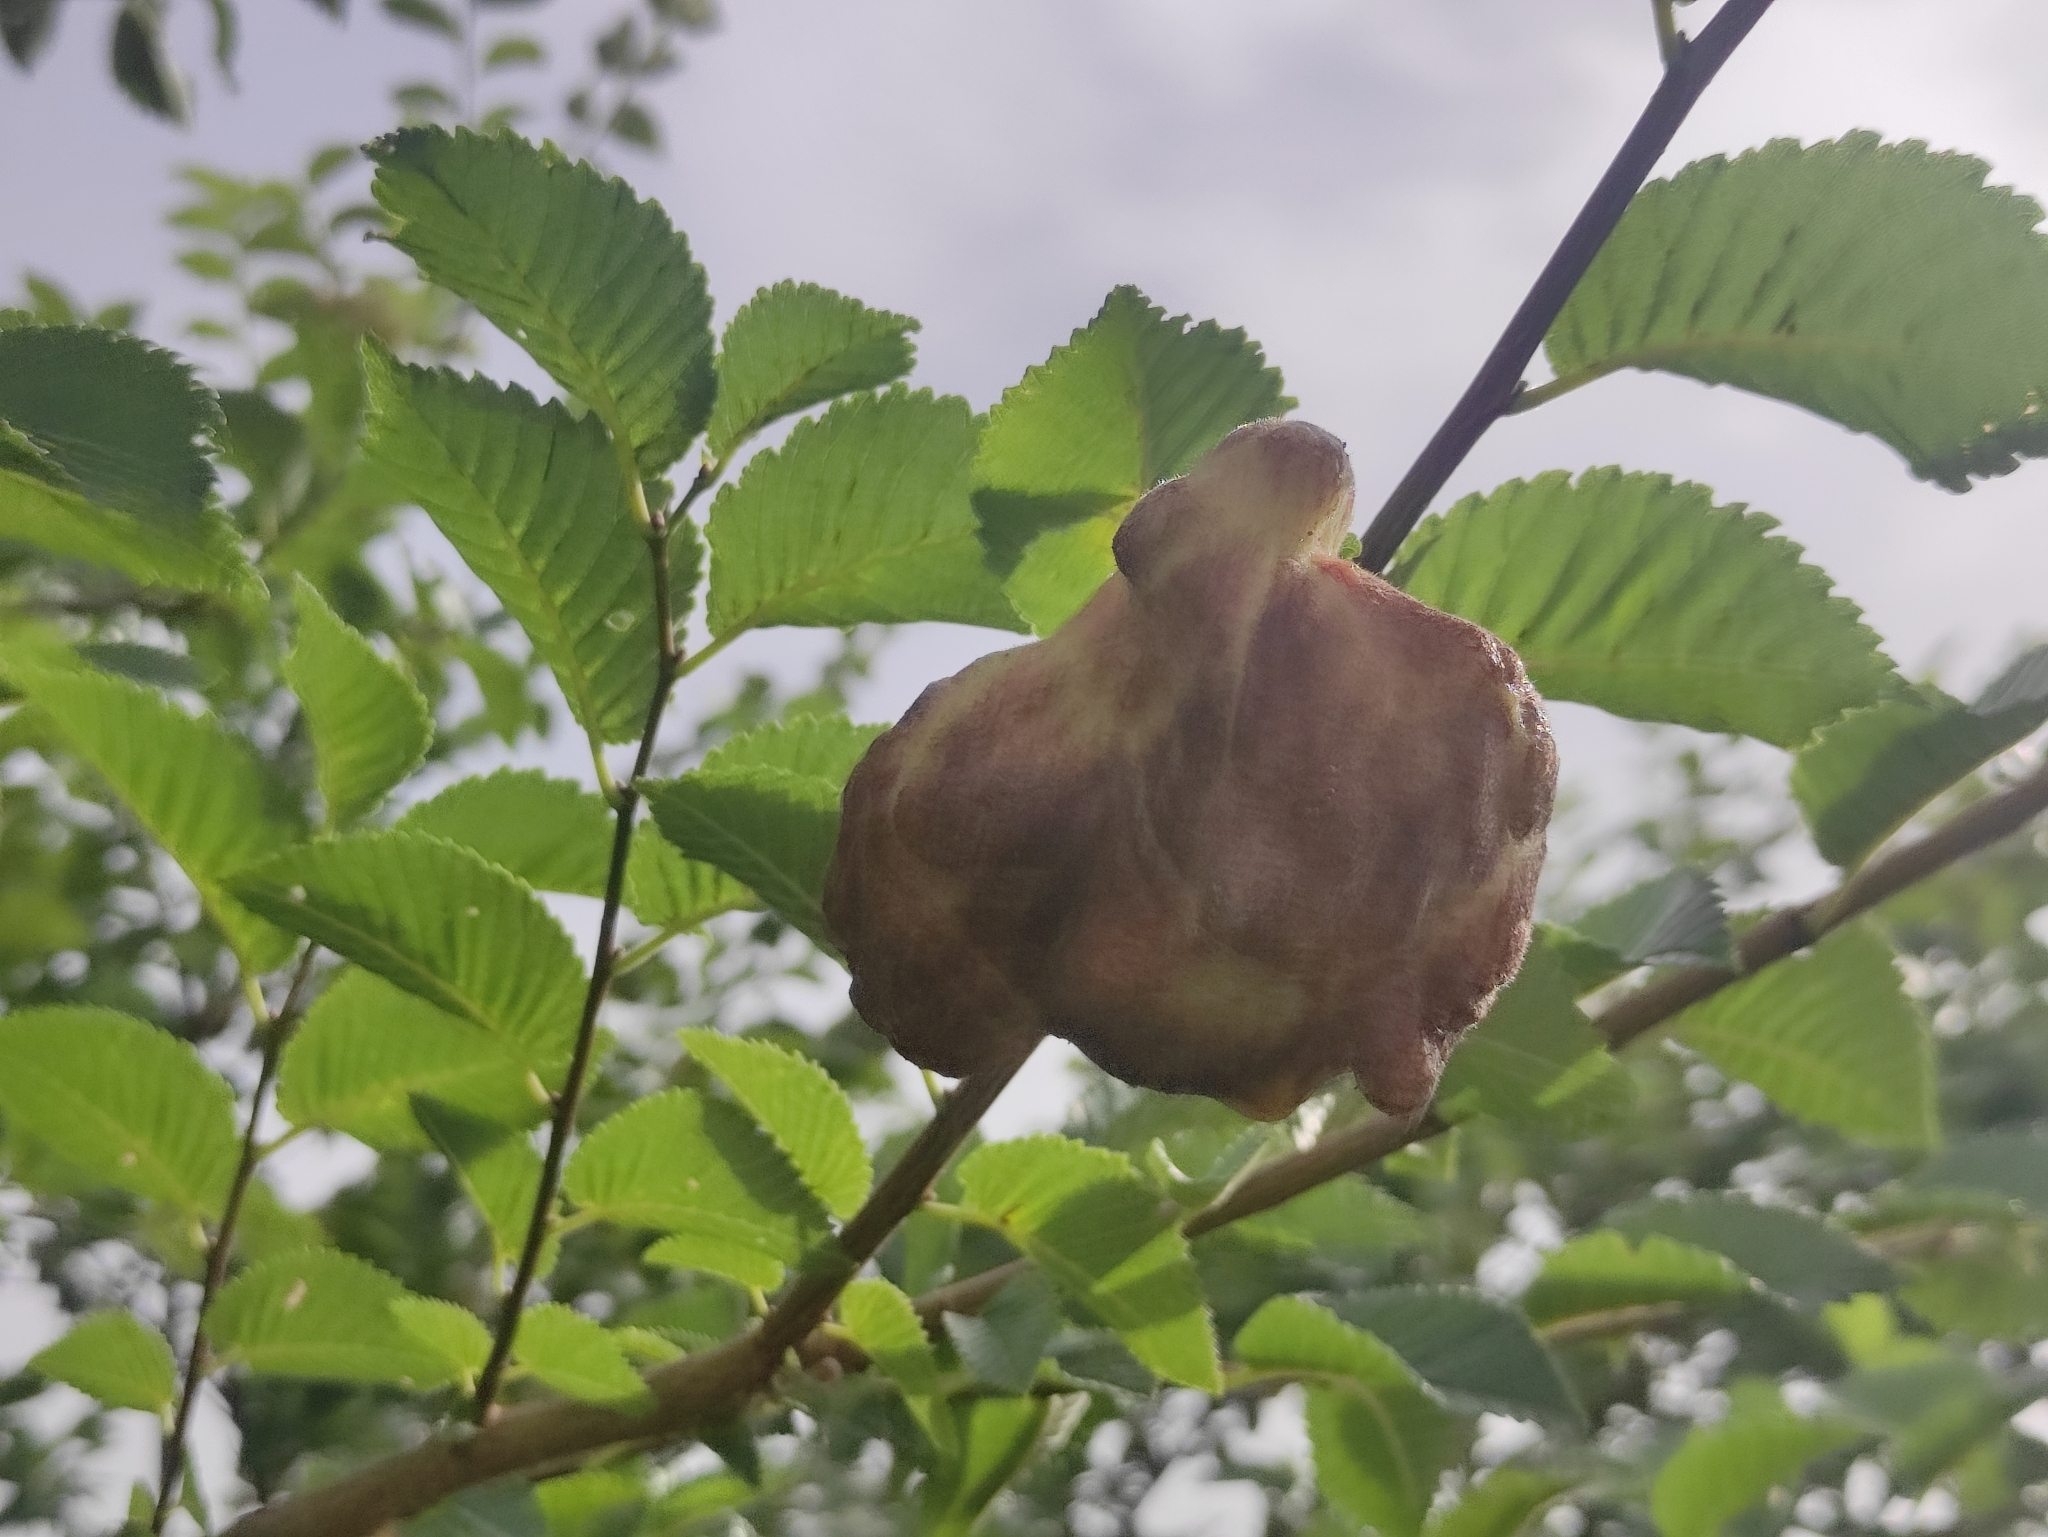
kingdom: Animalia
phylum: Arthropoda
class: Insecta
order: Hemiptera
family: Aphididae
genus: Eriosoma
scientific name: Eriosoma lanuginosum
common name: Aphid
